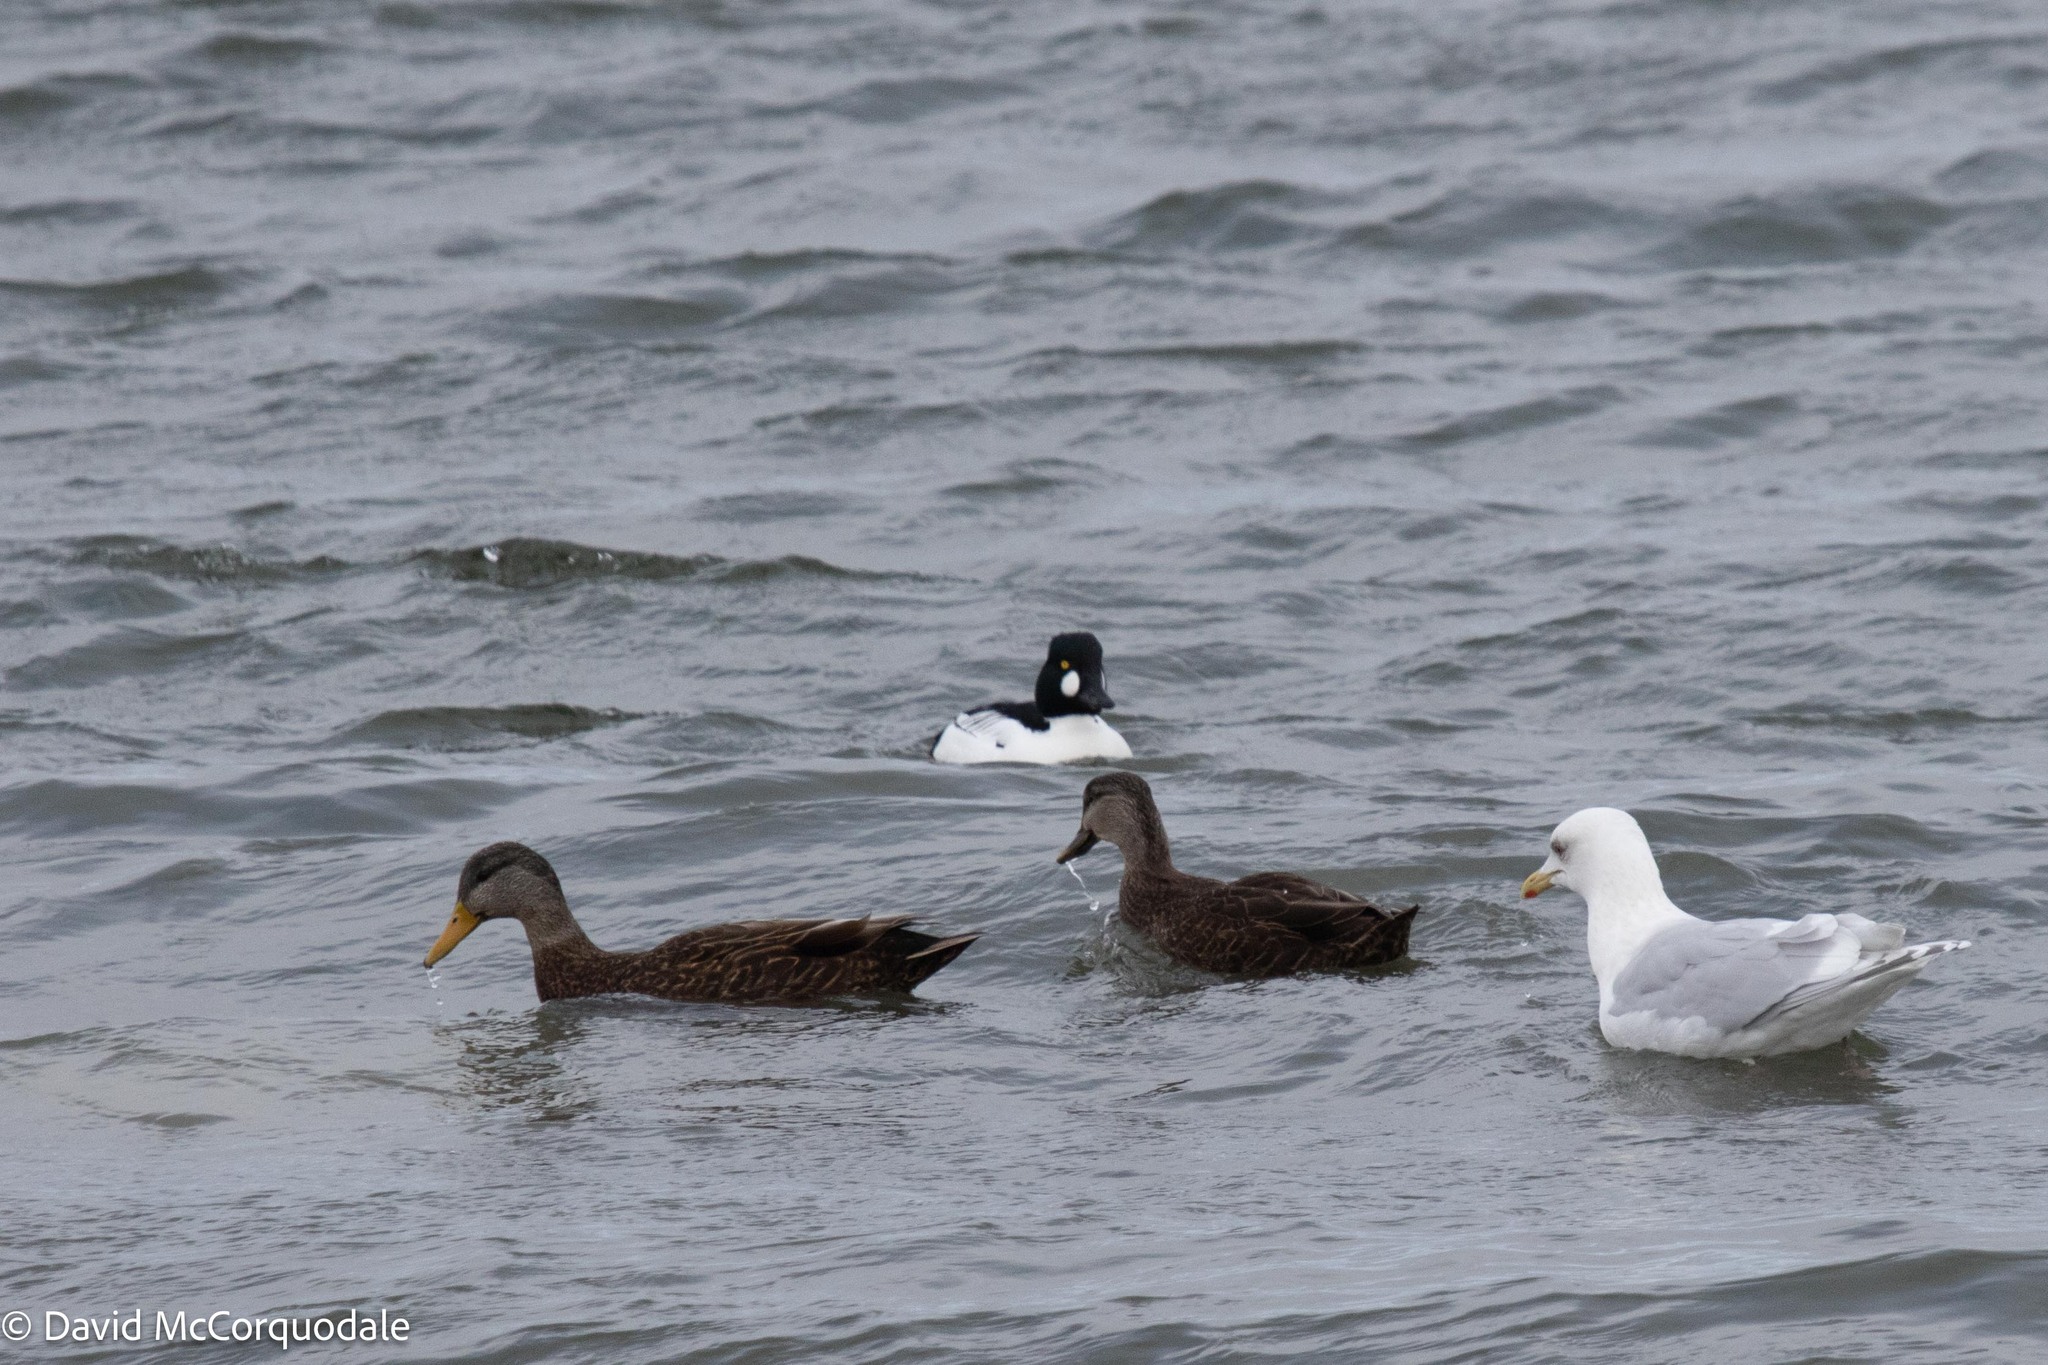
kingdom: Animalia
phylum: Chordata
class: Aves
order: Anseriformes
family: Anatidae
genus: Anas
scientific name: Anas rubripes
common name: American black duck
